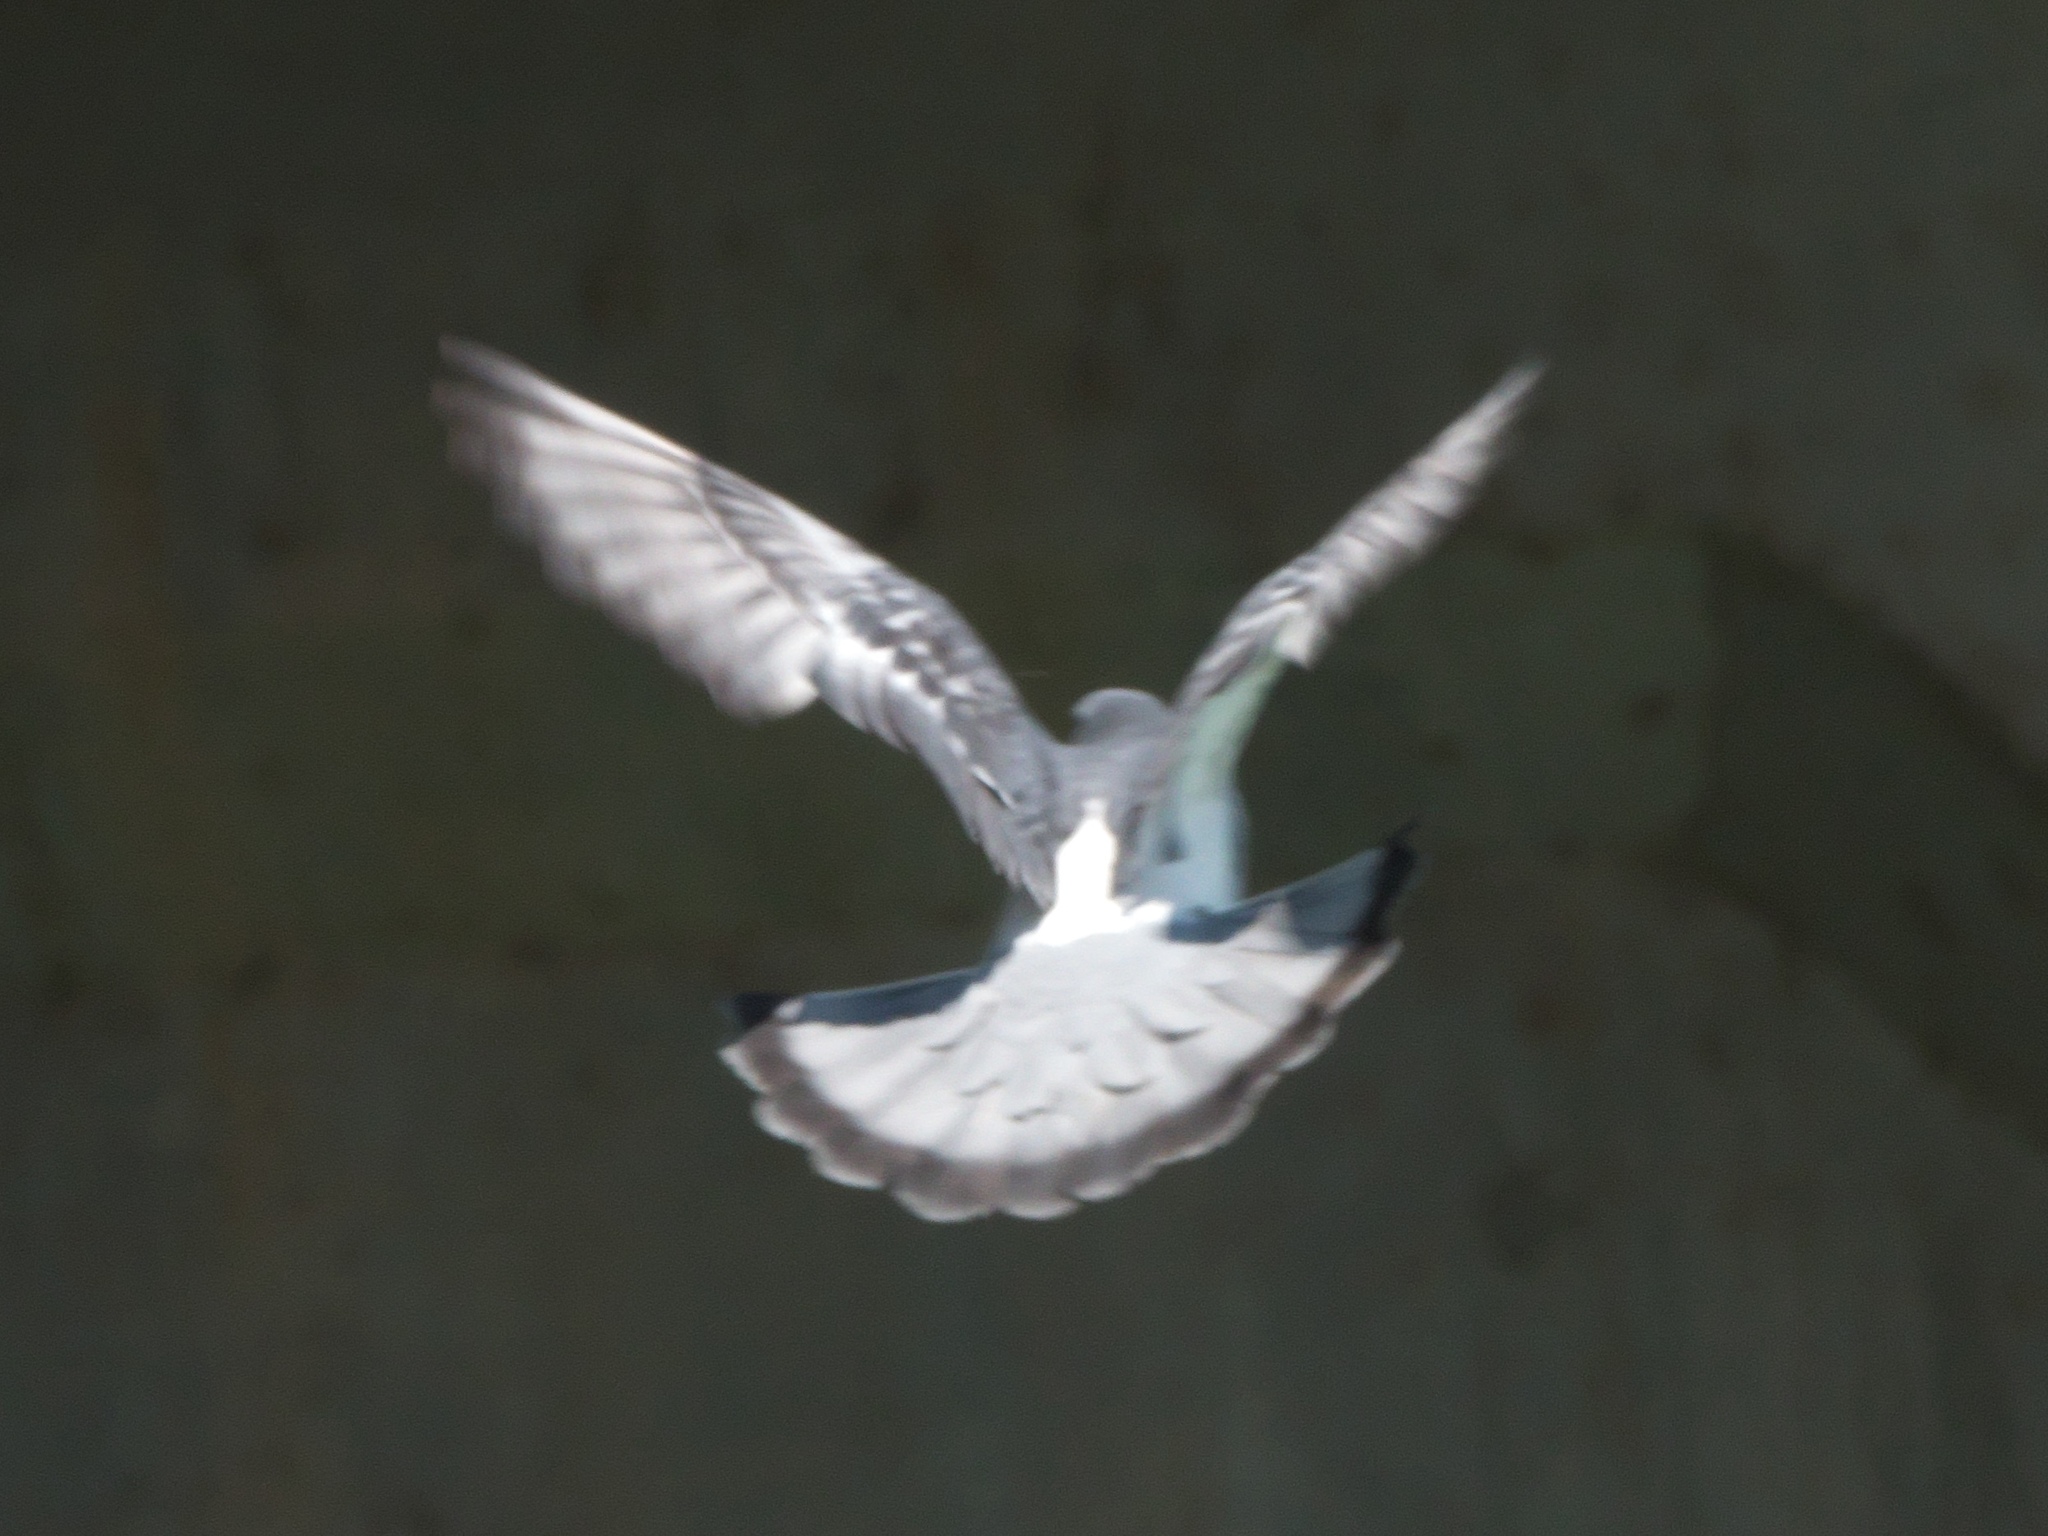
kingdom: Animalia
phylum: Chordata
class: Aves
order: Columbiformes
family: Columbidae
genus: Columba
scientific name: Columba livia
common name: Rock pigeon
